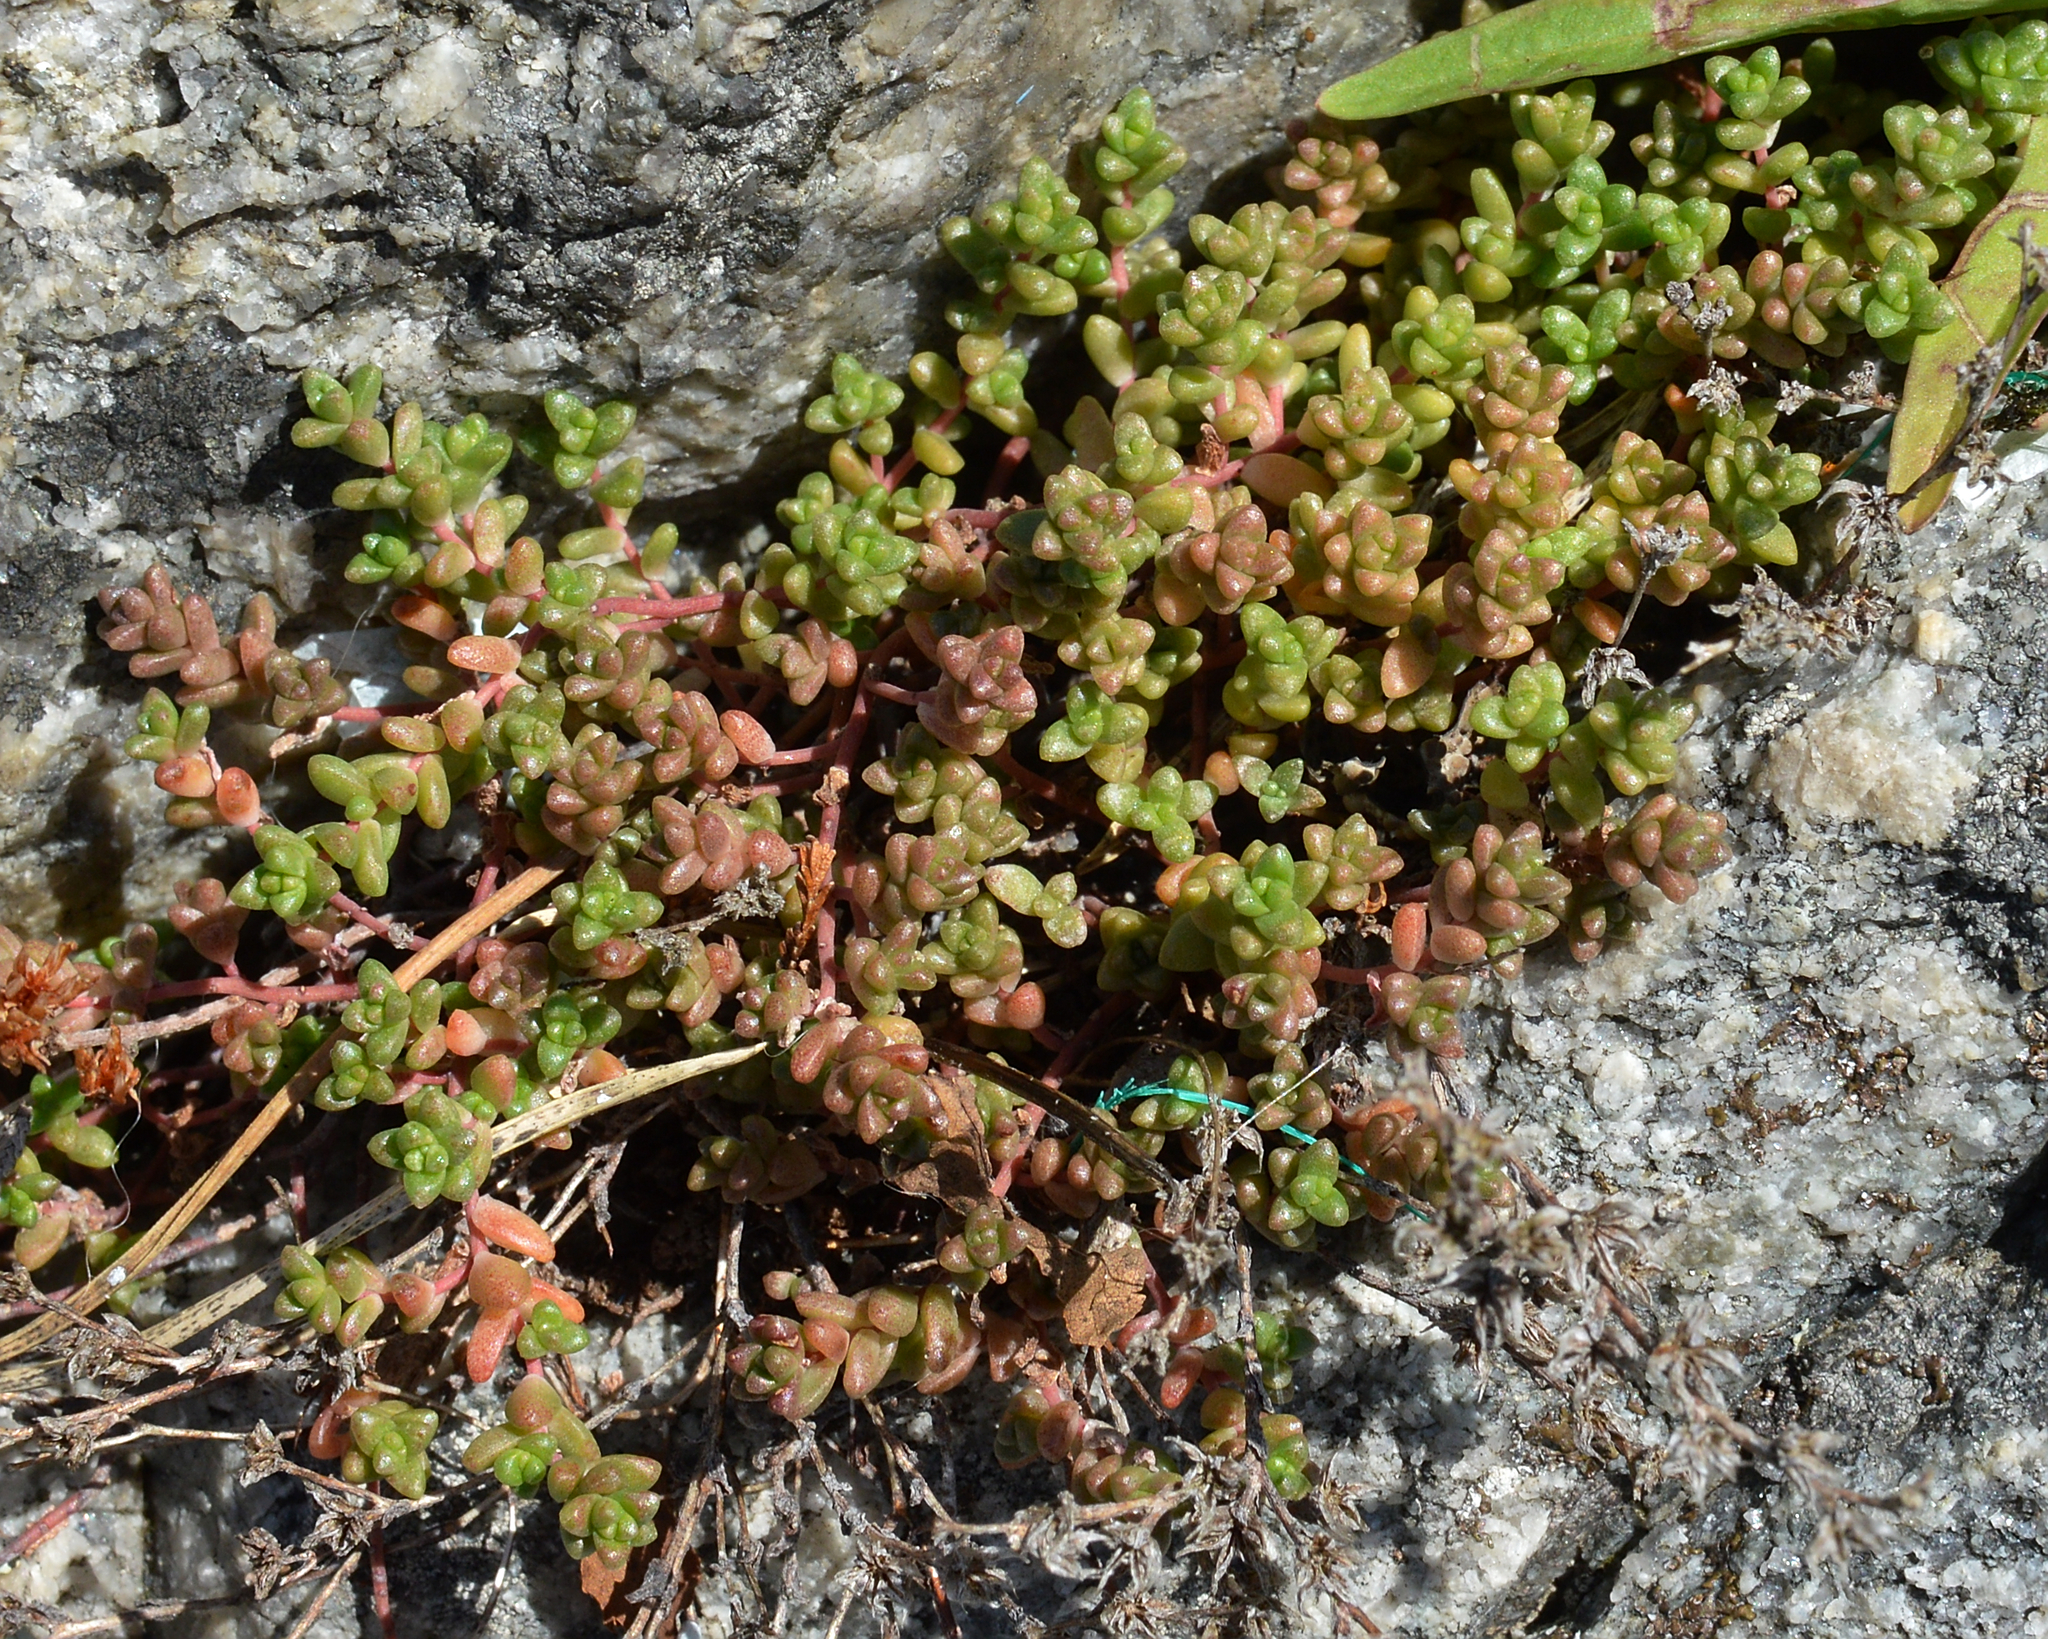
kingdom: Plantae
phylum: Tracheophyta
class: Magnoliopsida
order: Saxifragales
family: Crassulaceae
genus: Sedum
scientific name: Sedum anglicum
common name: English stonecrop
